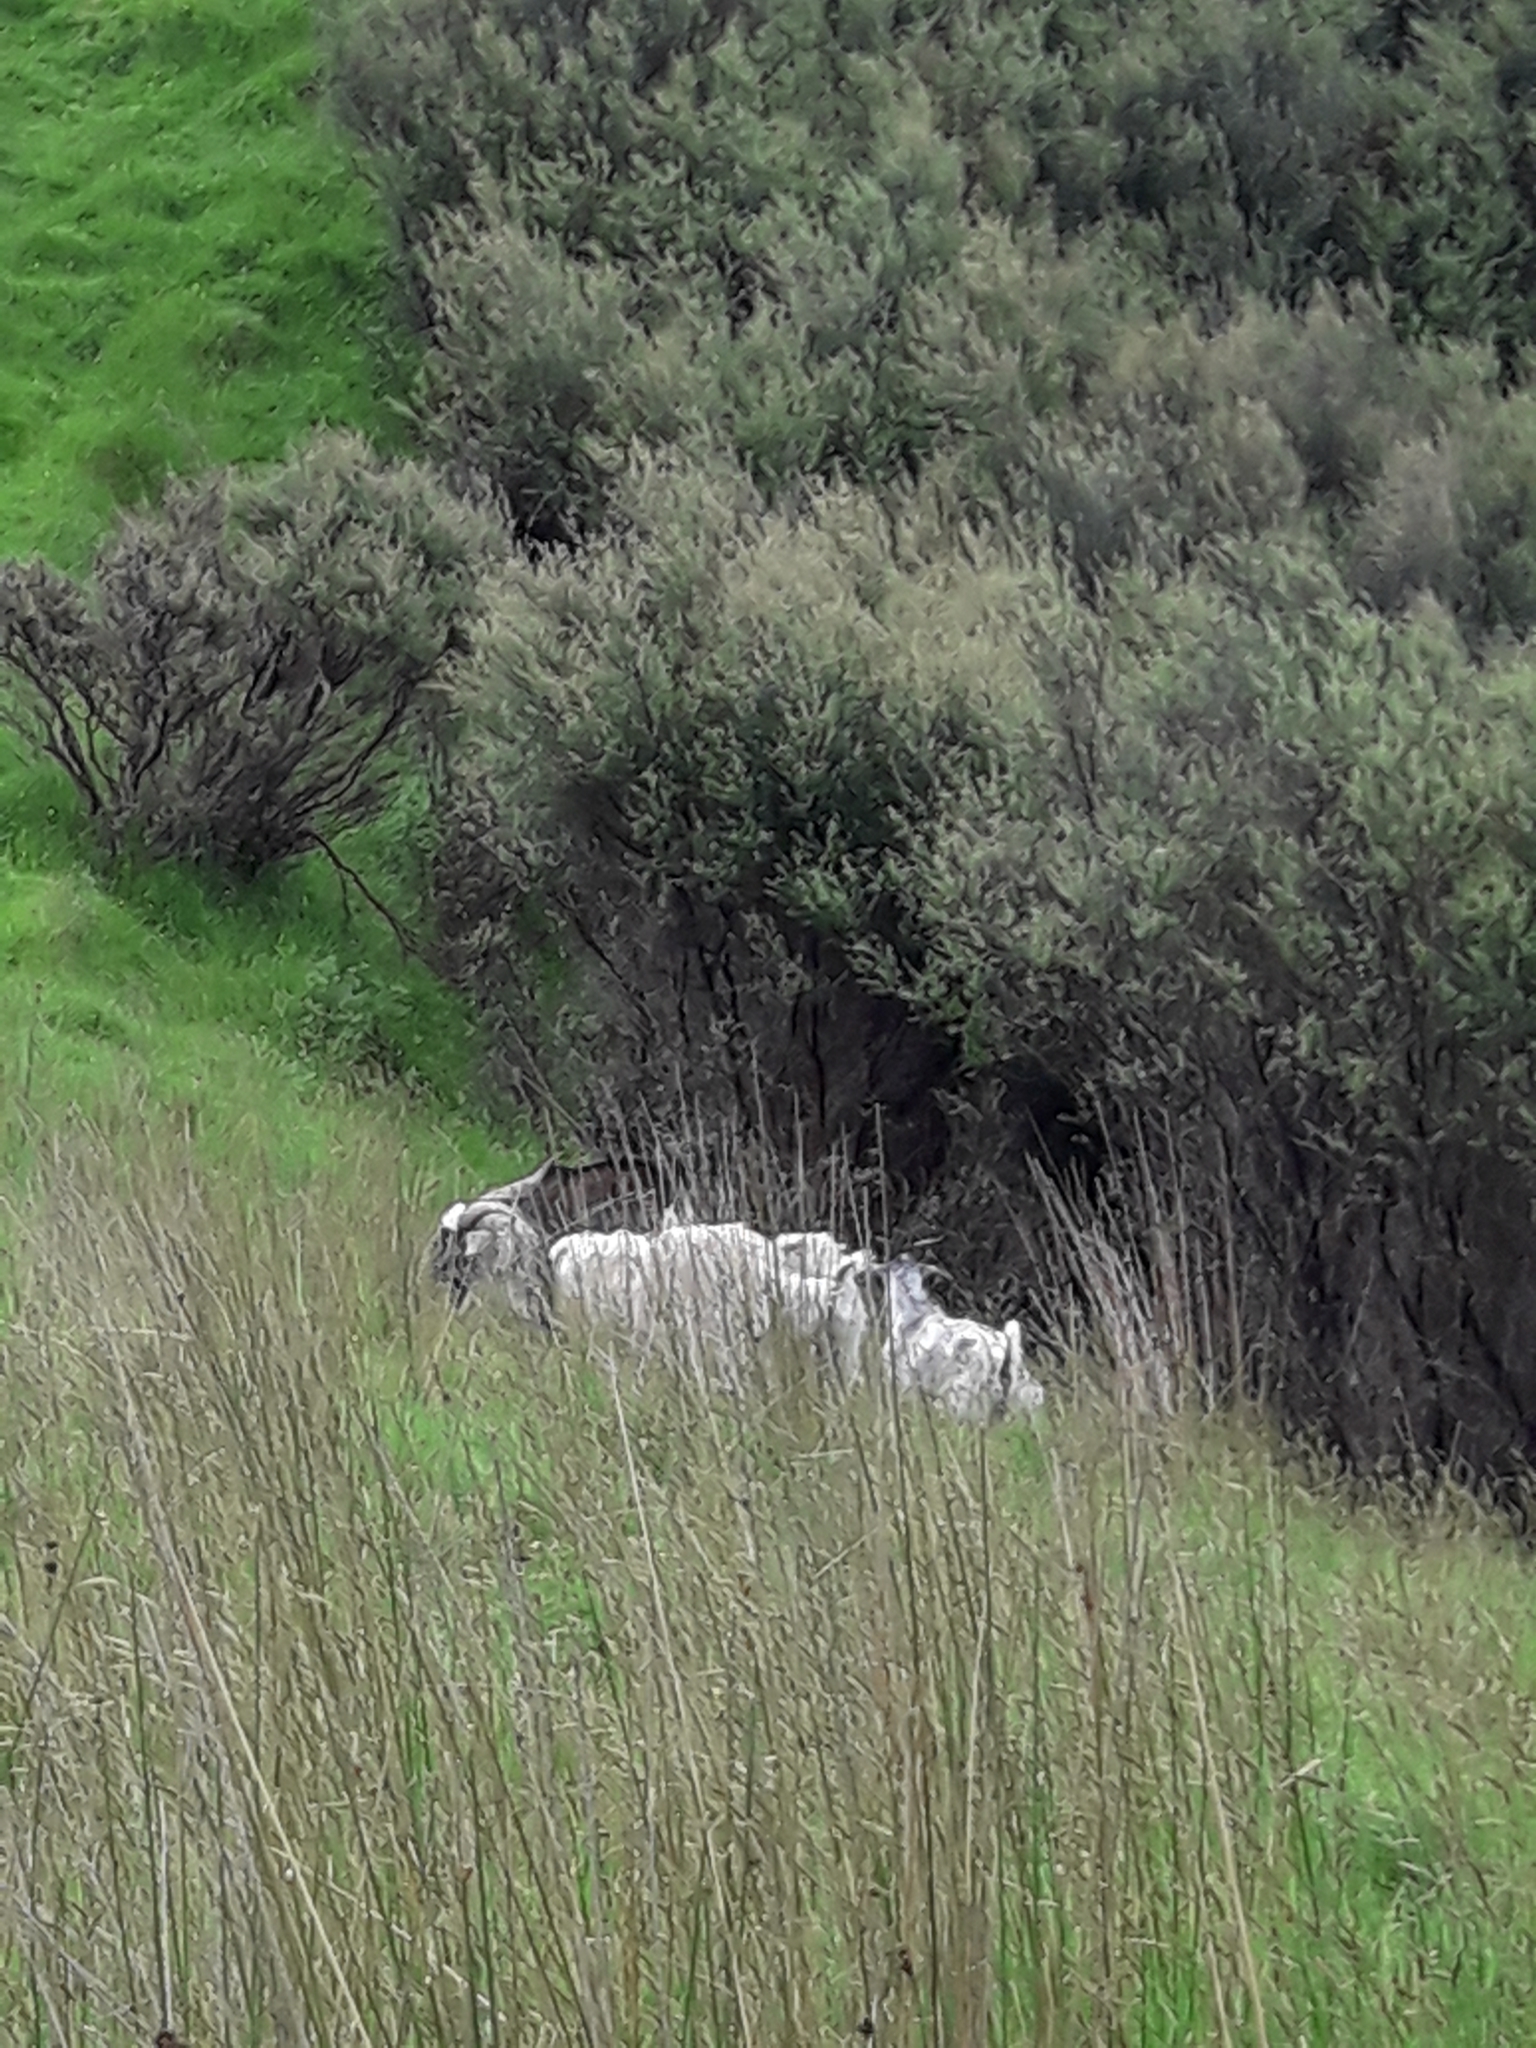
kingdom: Animalia
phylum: Chordata
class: Mammalia
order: Artiodactyla
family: Bovidae
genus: Capra
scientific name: Capra hircus
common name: Domestic goat
